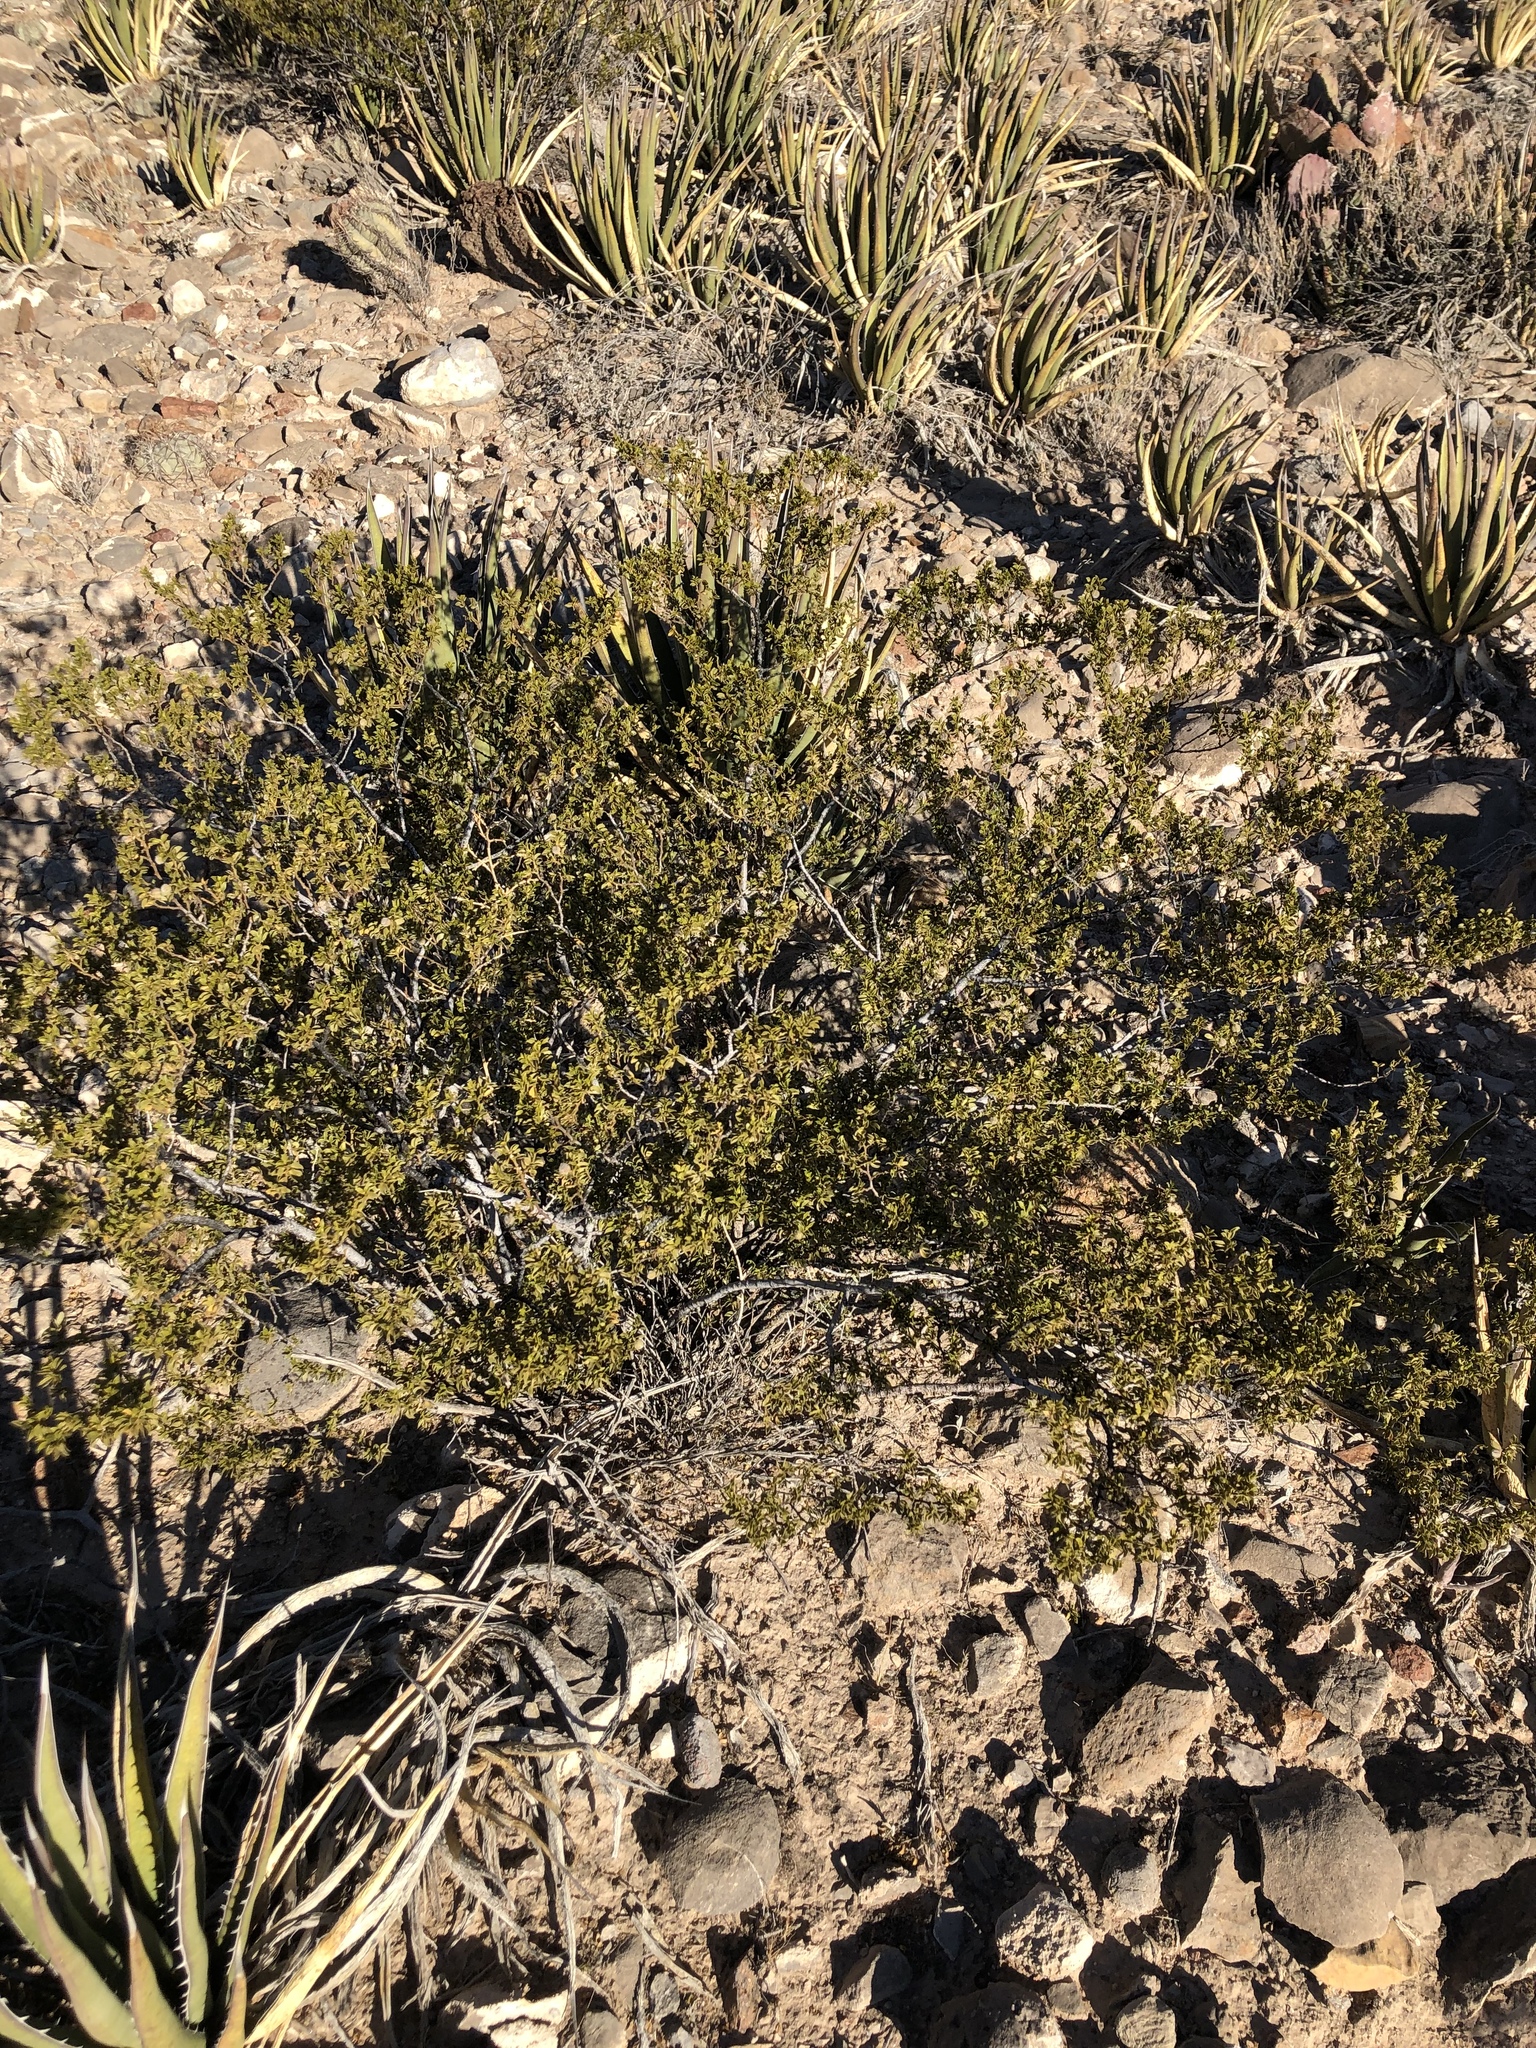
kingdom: Plantae
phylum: Tracheophyta
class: Magnoliopsida
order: Zygophyllales
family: Zygophyllaceae
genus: Larrea
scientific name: Larrea tridentata
